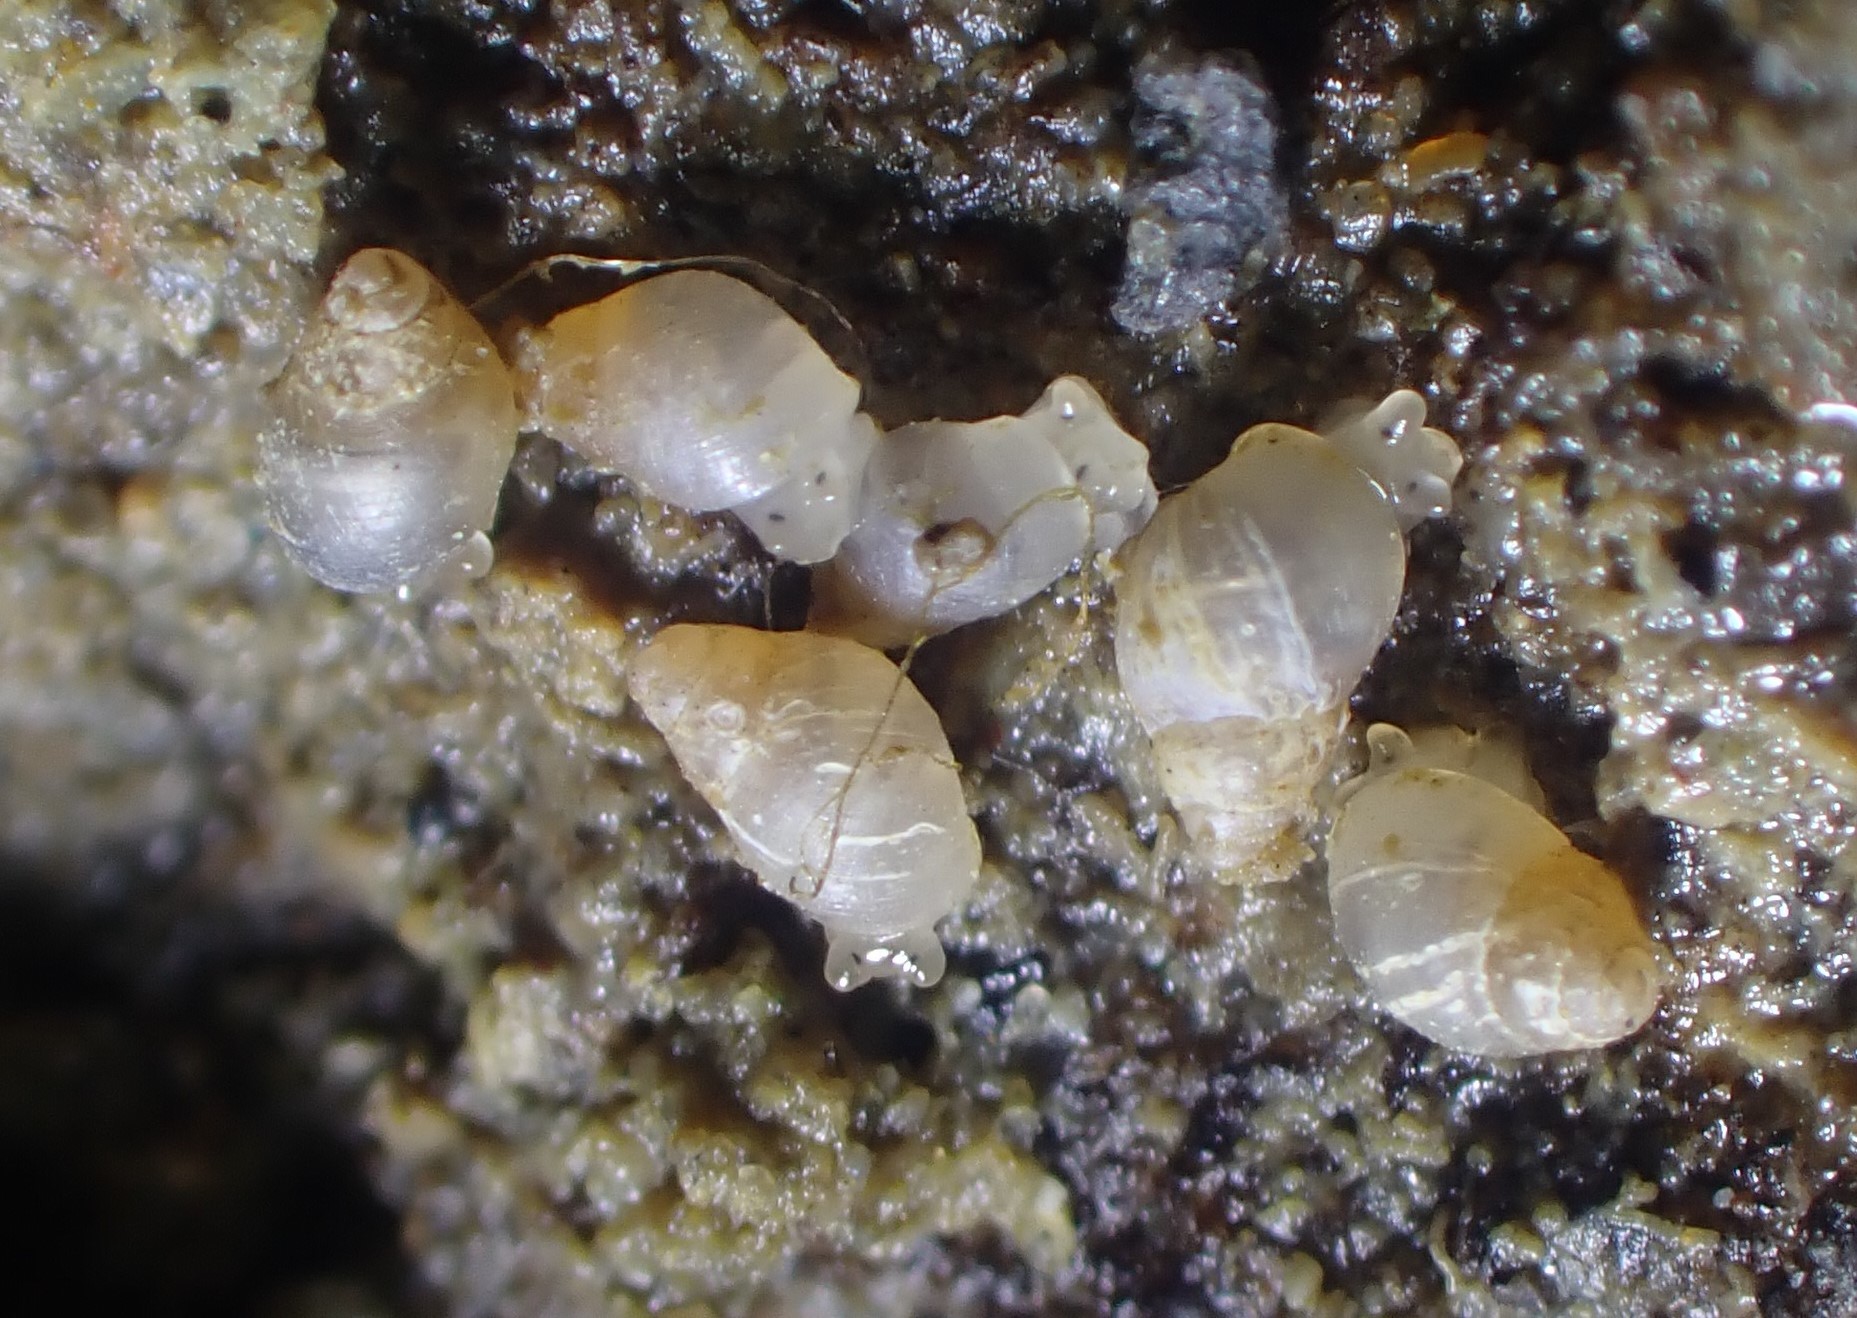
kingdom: Animalia
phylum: Mollusca
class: Gastropoda
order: Ellobiida
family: Ellobiidae
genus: Leuconopsis
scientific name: Leuconopsis obsoleta
